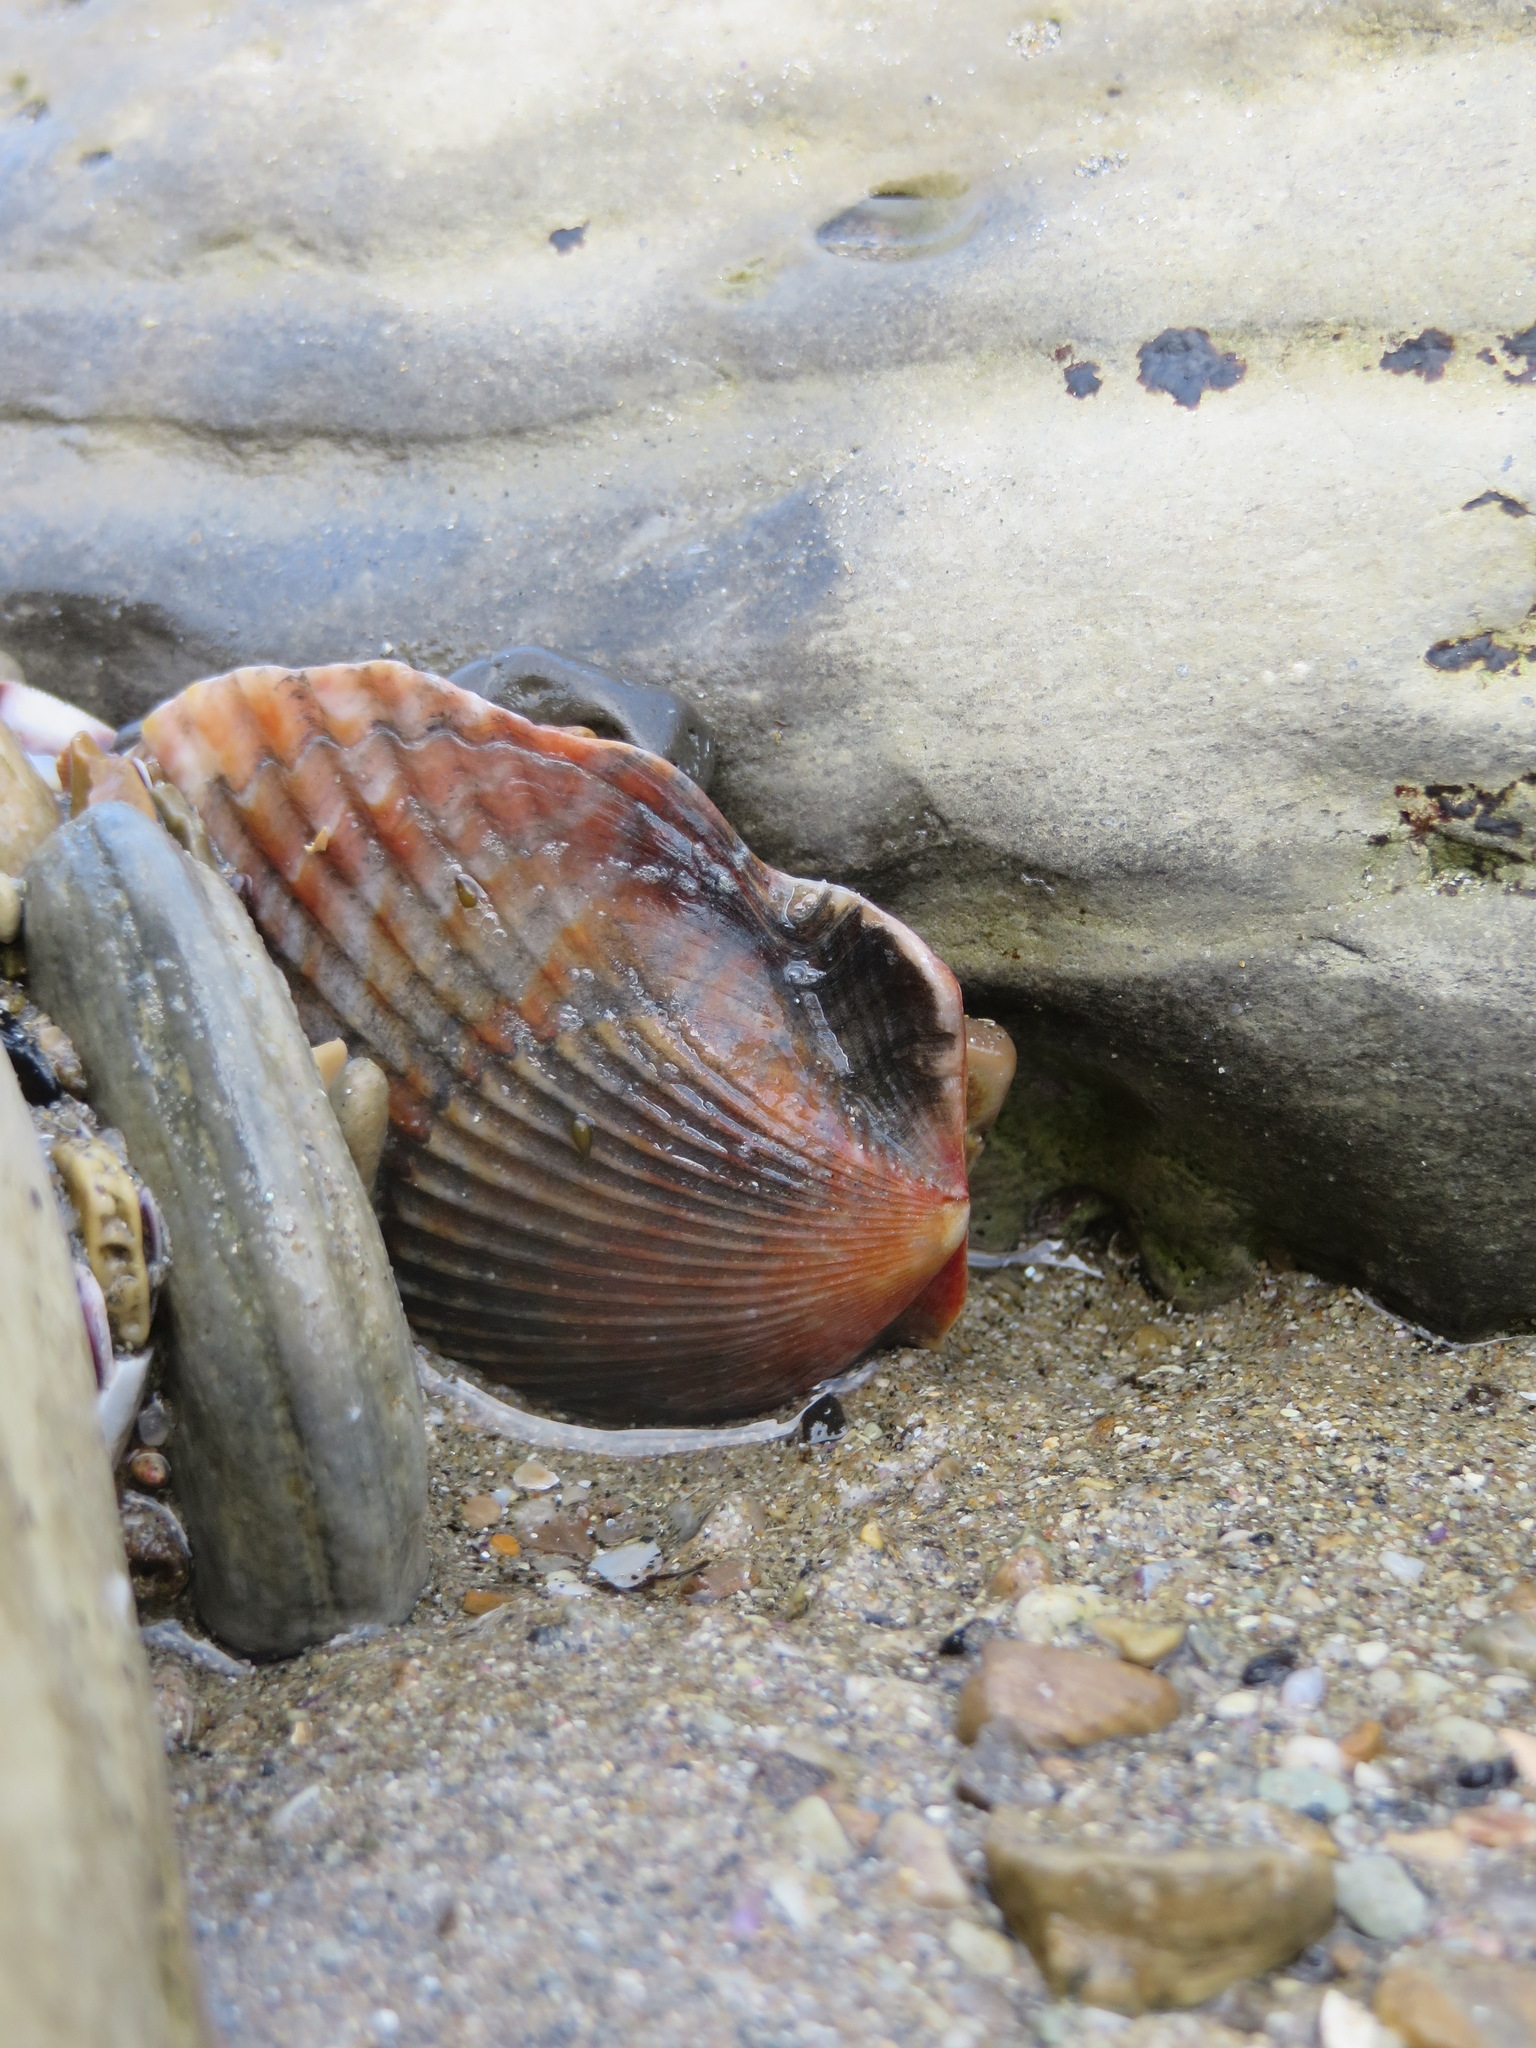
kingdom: Animalia
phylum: Mollusca
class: Bivalvia
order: Pectinida
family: Pectinidae
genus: Argopecten
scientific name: Argopecten ventricosus
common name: Catarina scallop
